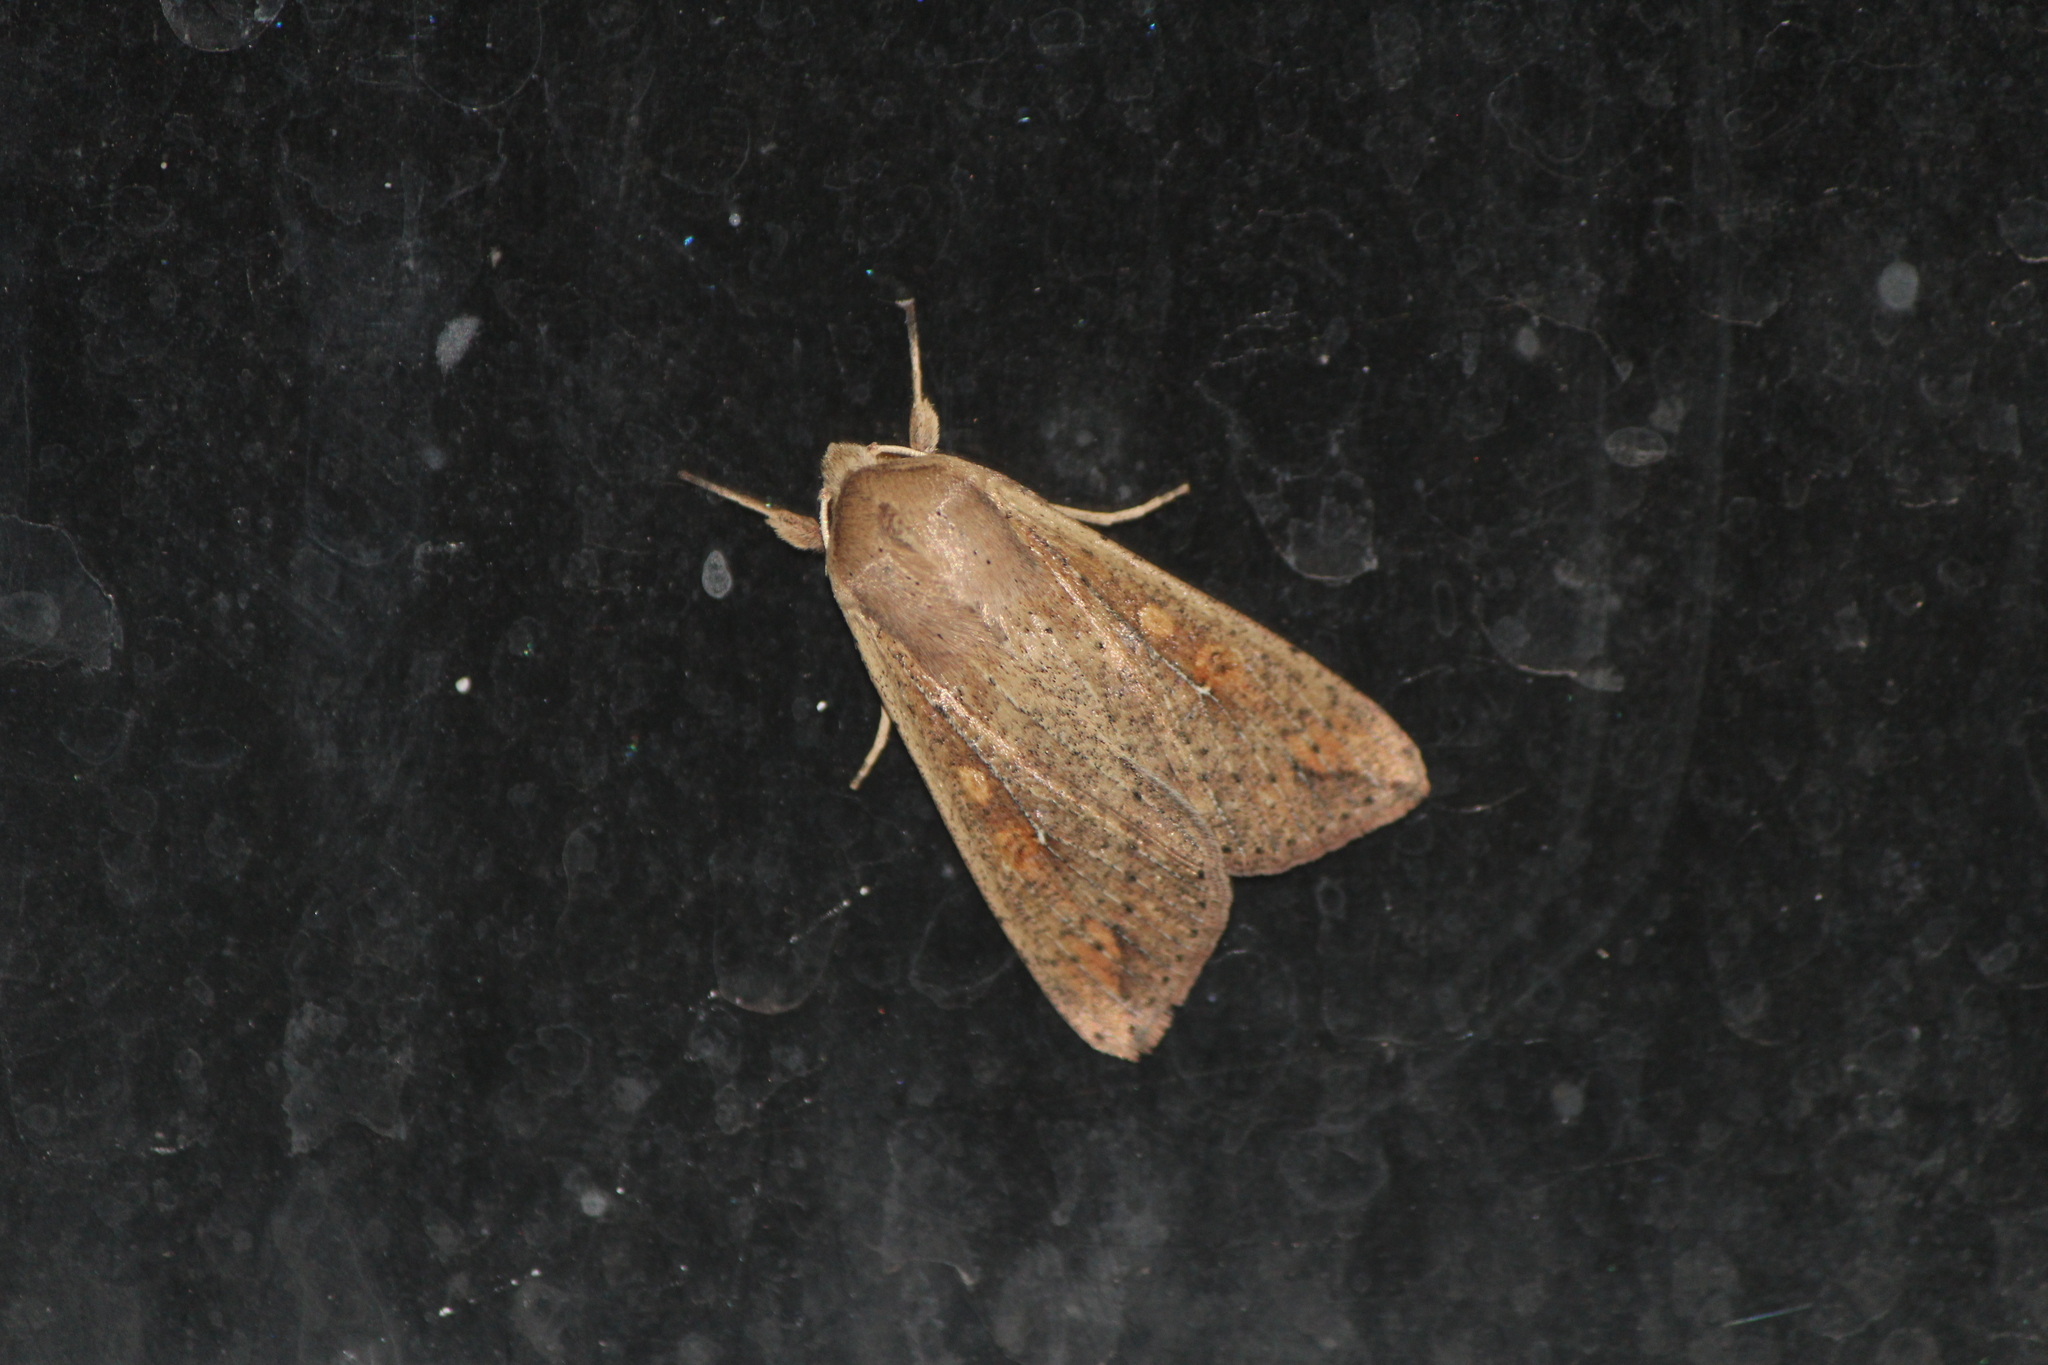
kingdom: Animalia
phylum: Arthropoda
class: Insecta
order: Lepidoptera
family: Noctuidae
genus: Mythimna
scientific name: Mythimna unipuncta
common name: White-speck
